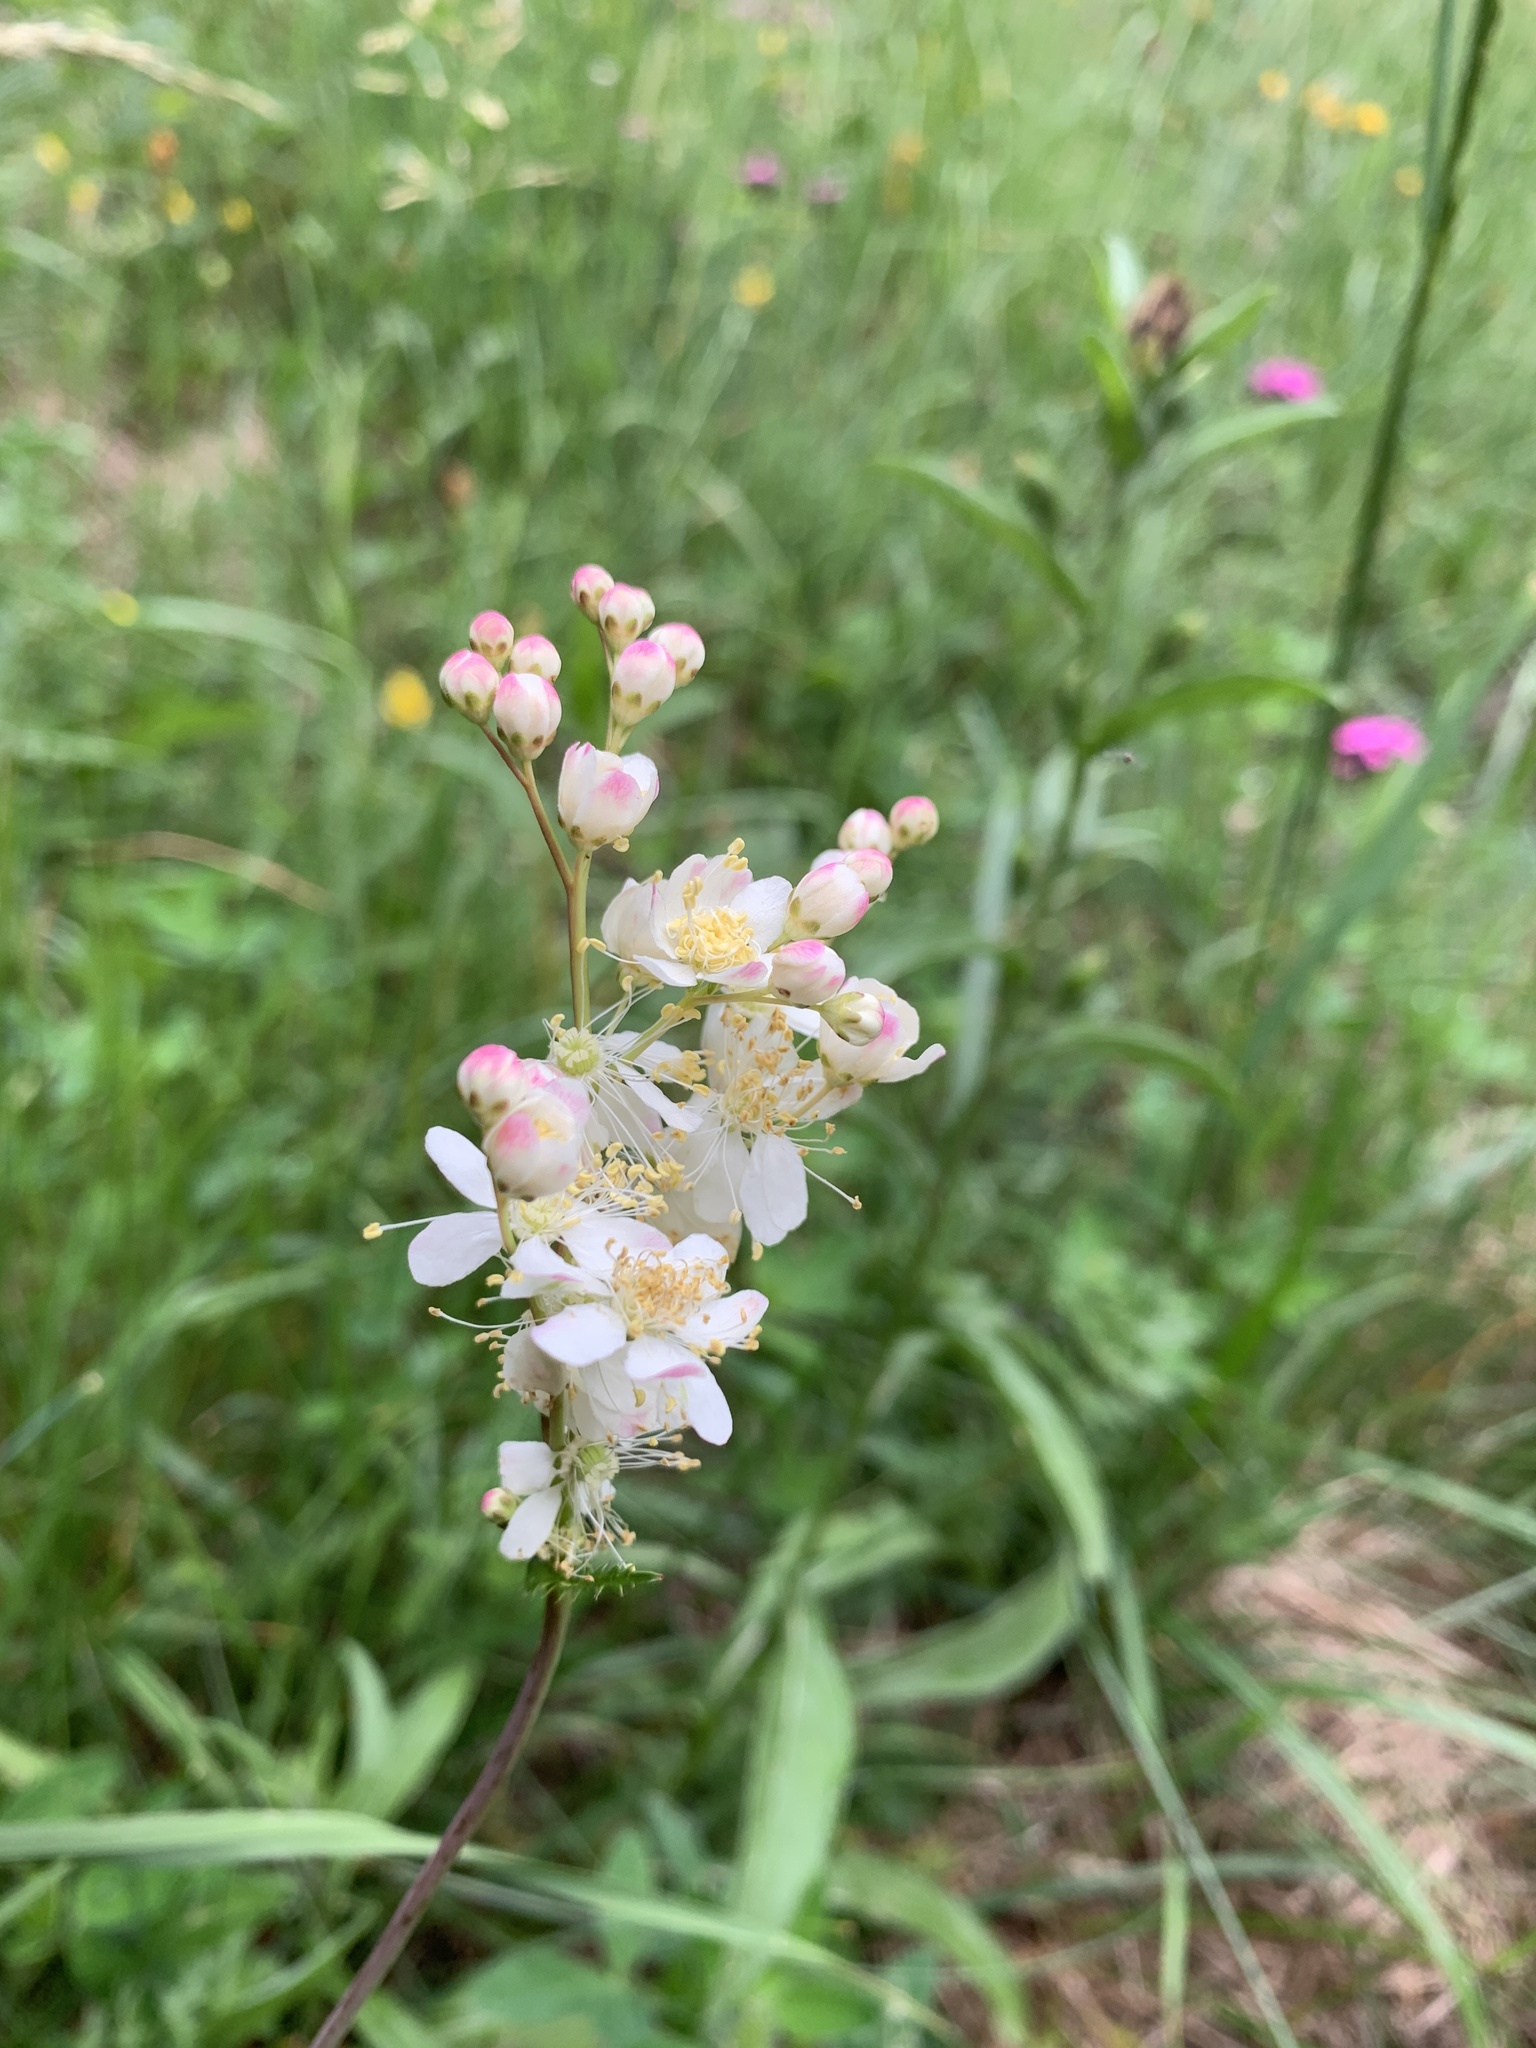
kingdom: Plantae
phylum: Tracheophyta
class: Magnoliopsida
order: Rosales
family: Rosaceae
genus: Filipendula
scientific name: Filipendula vulgaris
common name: Dropwort
